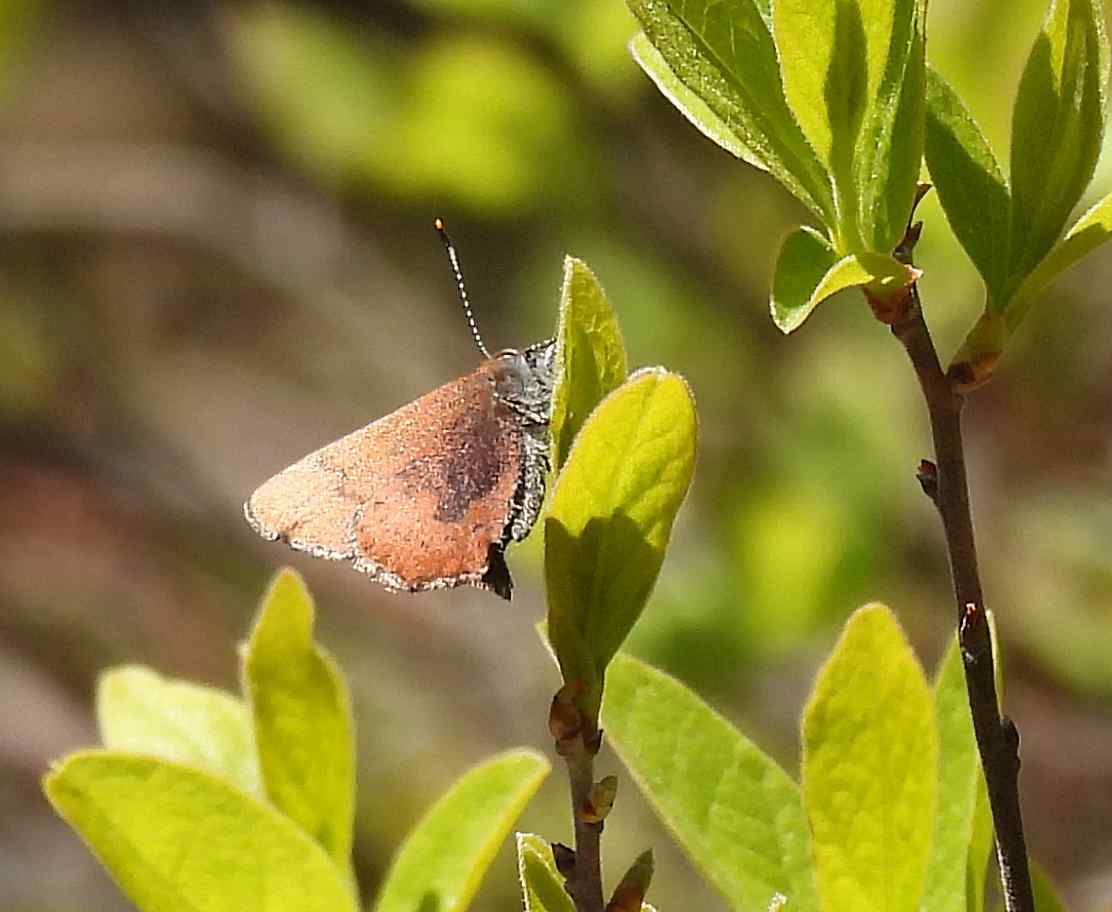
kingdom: Animalia
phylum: Arthropoda
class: Insecta
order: Lepidoptera
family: Lycaenidae
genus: Incisalia
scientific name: Incisalia irioides
